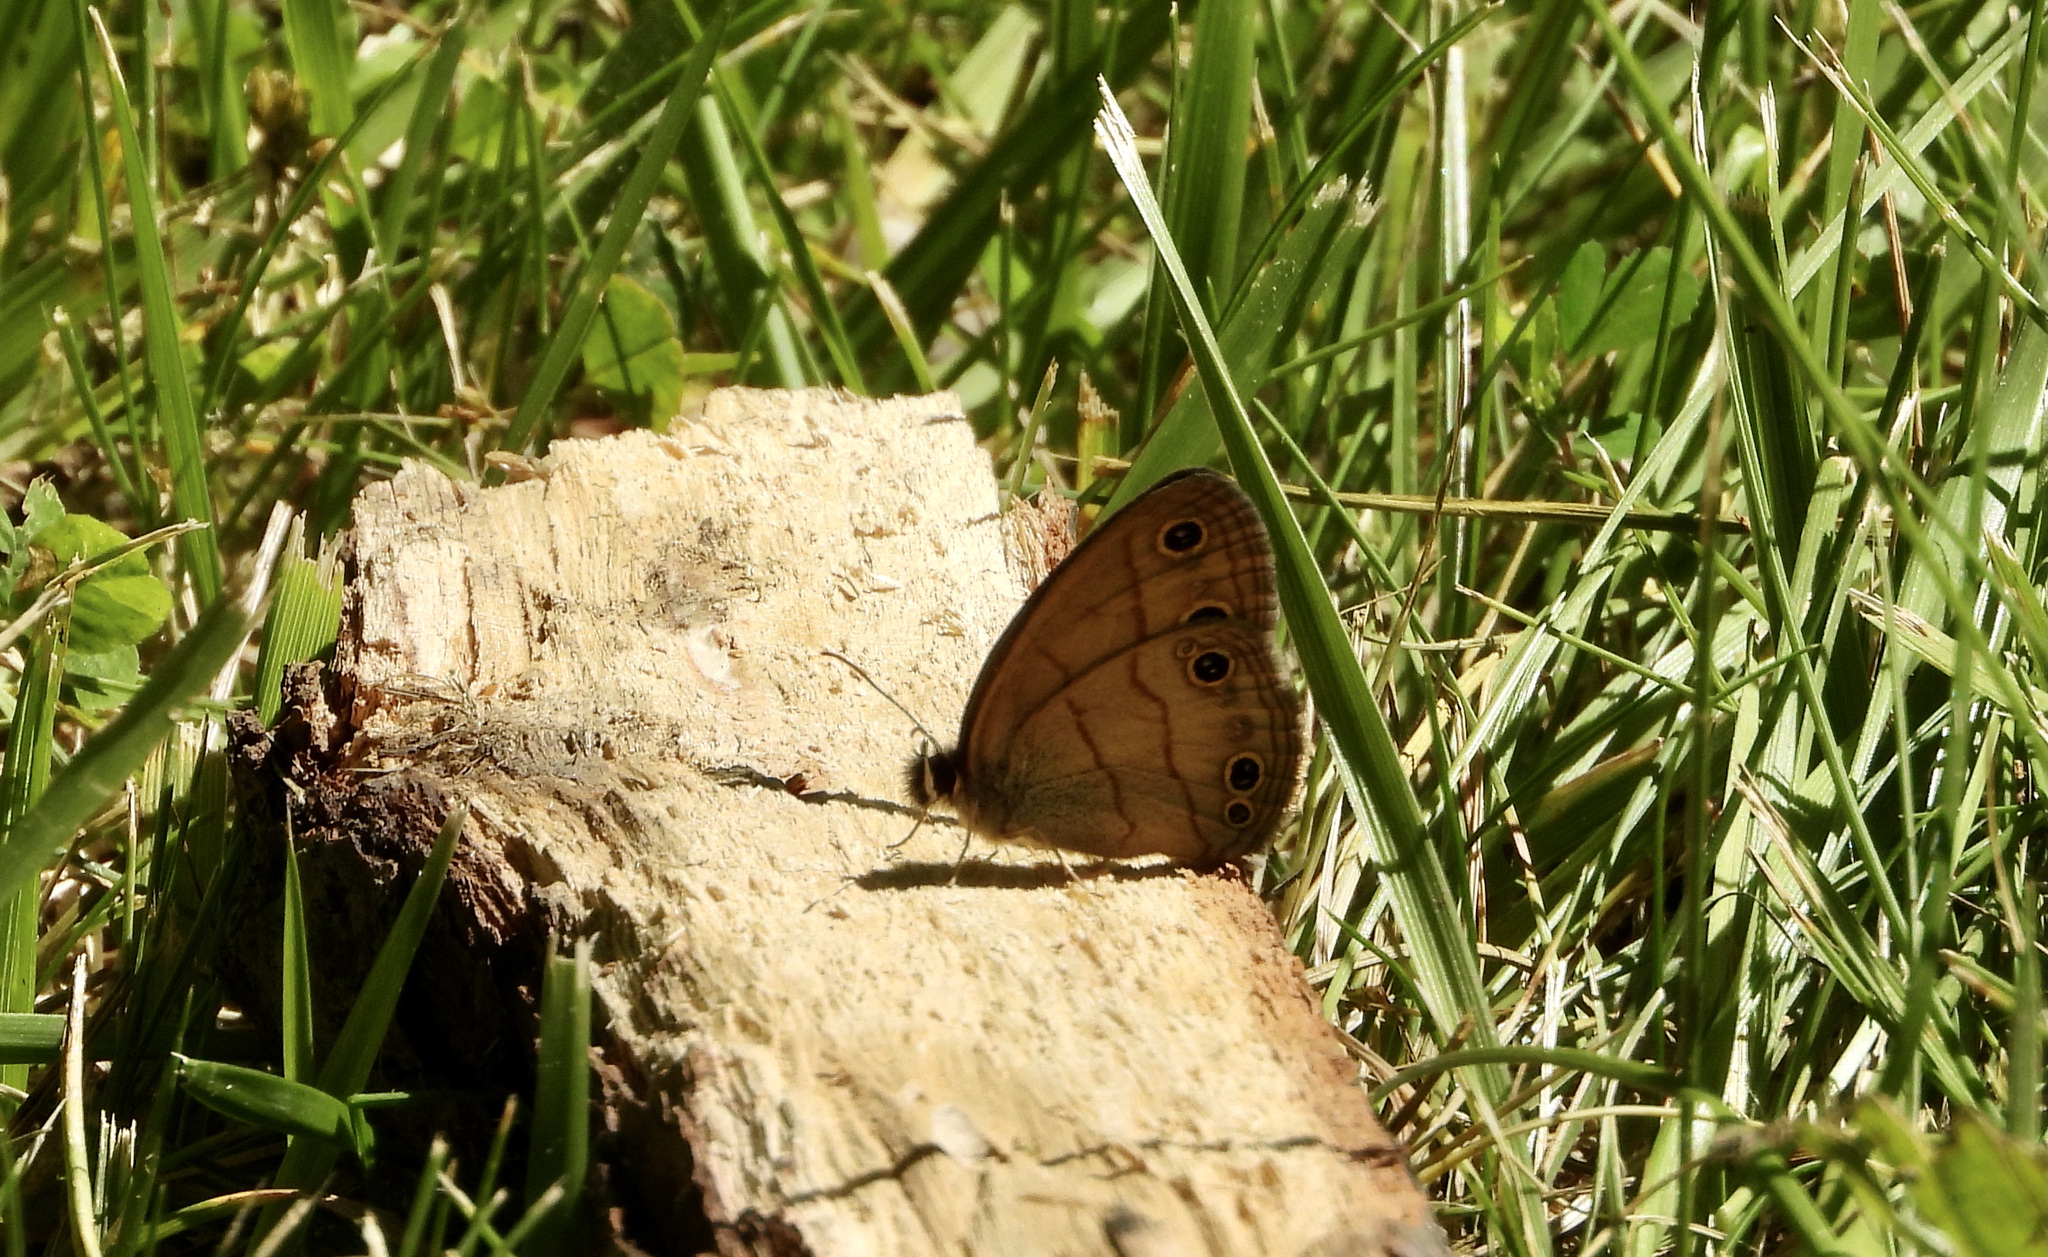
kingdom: Animalia
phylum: Arthropoda
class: Insecta
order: Lepidoptera
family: Nymphalidae
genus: Euptychia
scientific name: Euptychia cymela
